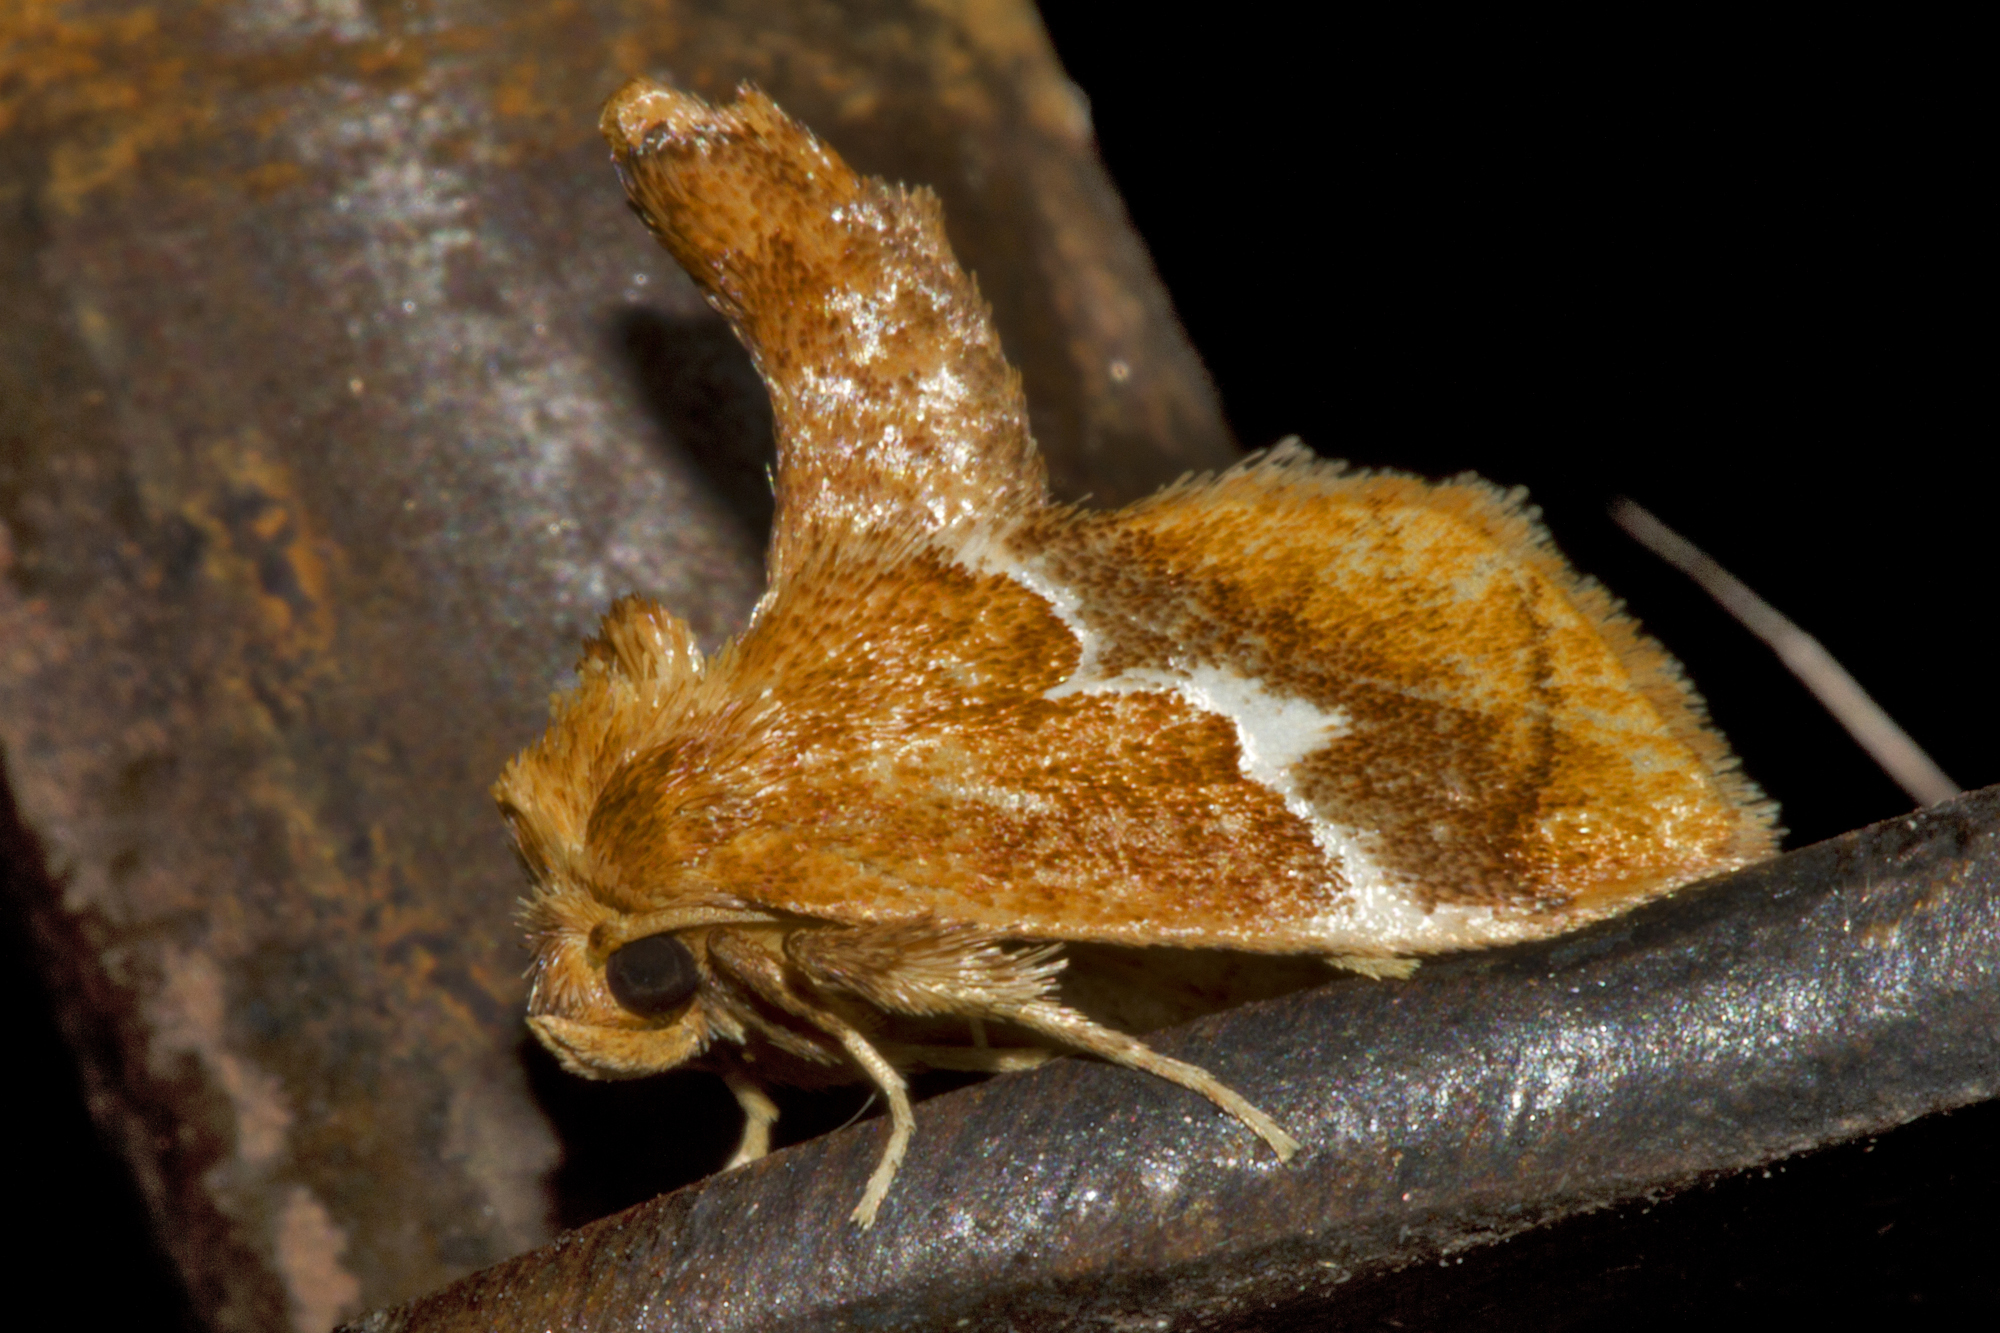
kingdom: Animalia
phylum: Arthropoda
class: Insecta
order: Lepidoptera
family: Limacodidae
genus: Lithacodes
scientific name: Lithacodes fasciola
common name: Yellow-shouldered slug moth
